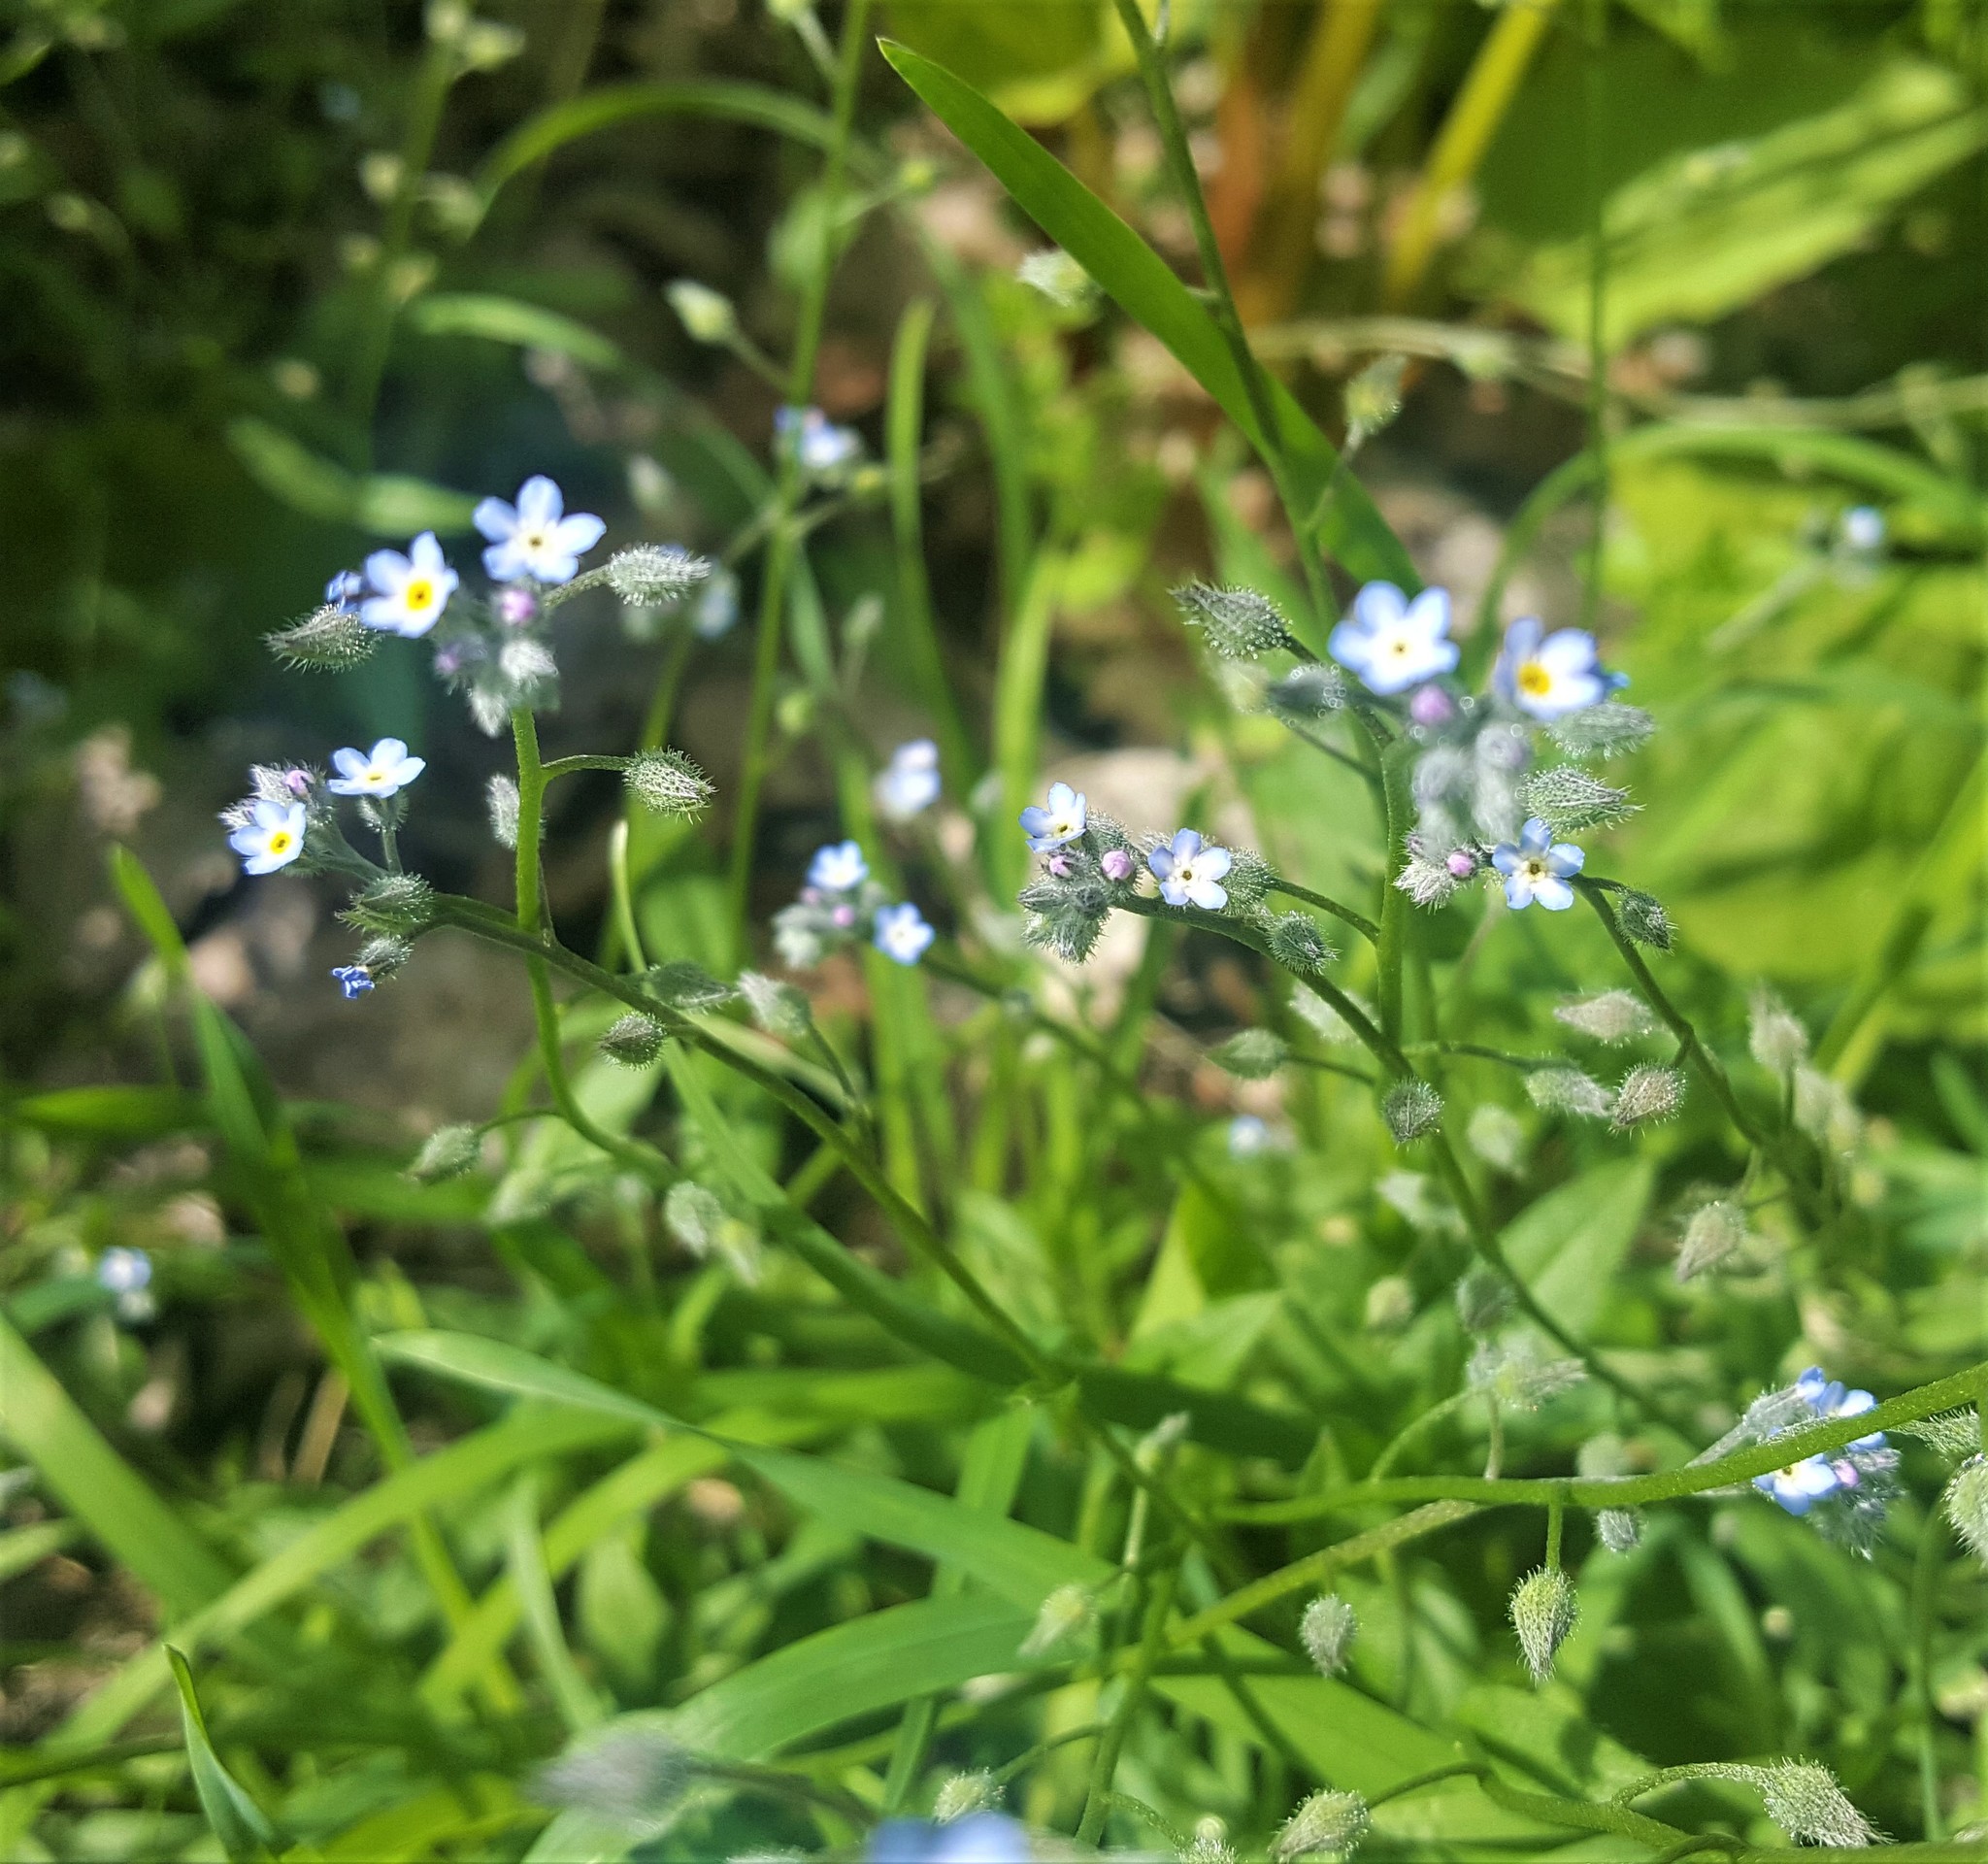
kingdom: Plantae
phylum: Tracheophyta
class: Magnoliopsida
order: Boraginales
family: Boraginaceae
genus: Myosotis
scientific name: Myosotis arvensis
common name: Field forget-me-not
